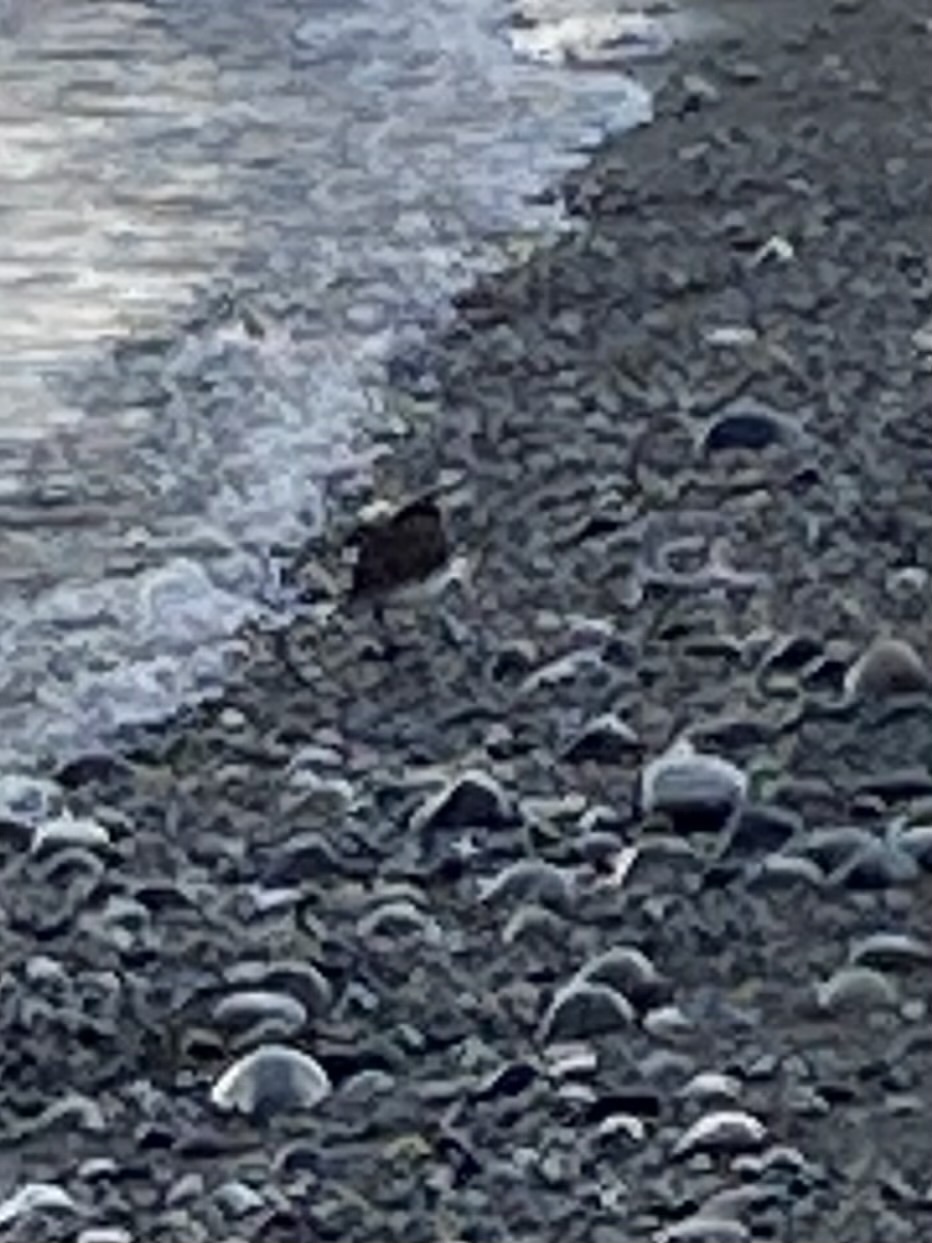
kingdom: Animalia
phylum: Chordata
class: Aves
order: Charadriiformes
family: Scolopacidae
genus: Arenaria
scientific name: Arenaria melanocephala
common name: Black turnstone
